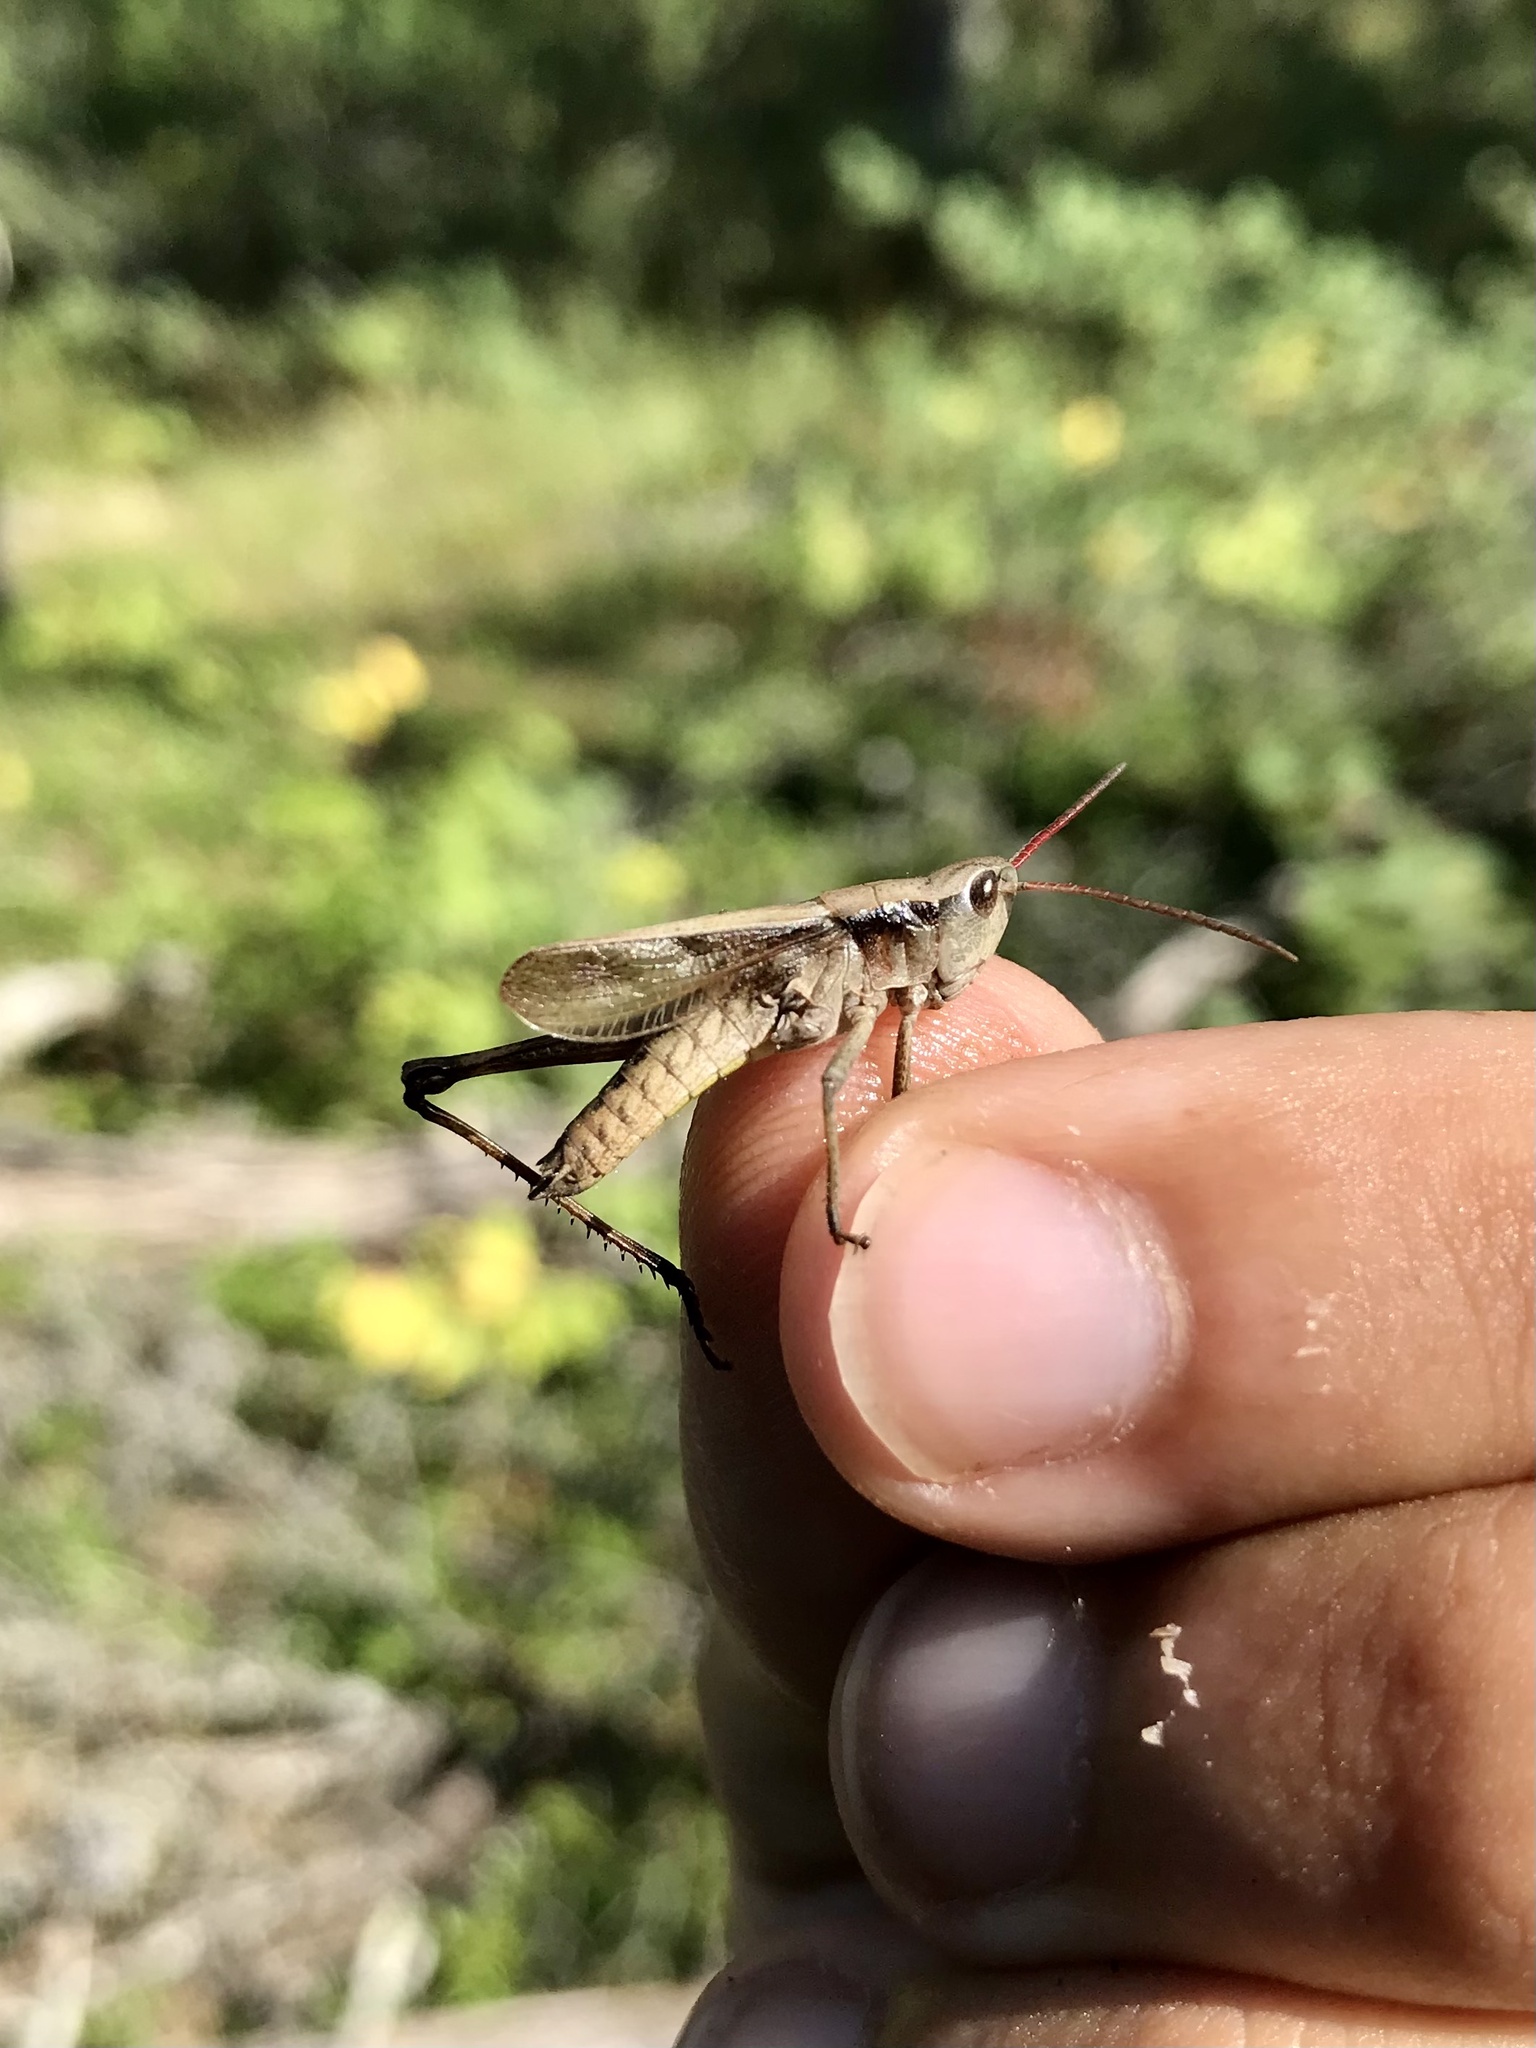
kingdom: Animalia
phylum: Arthropoda
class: Insecta
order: Orthoptera
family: Acrididae
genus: Chloealtis
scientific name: Chloealtis abdominalis
